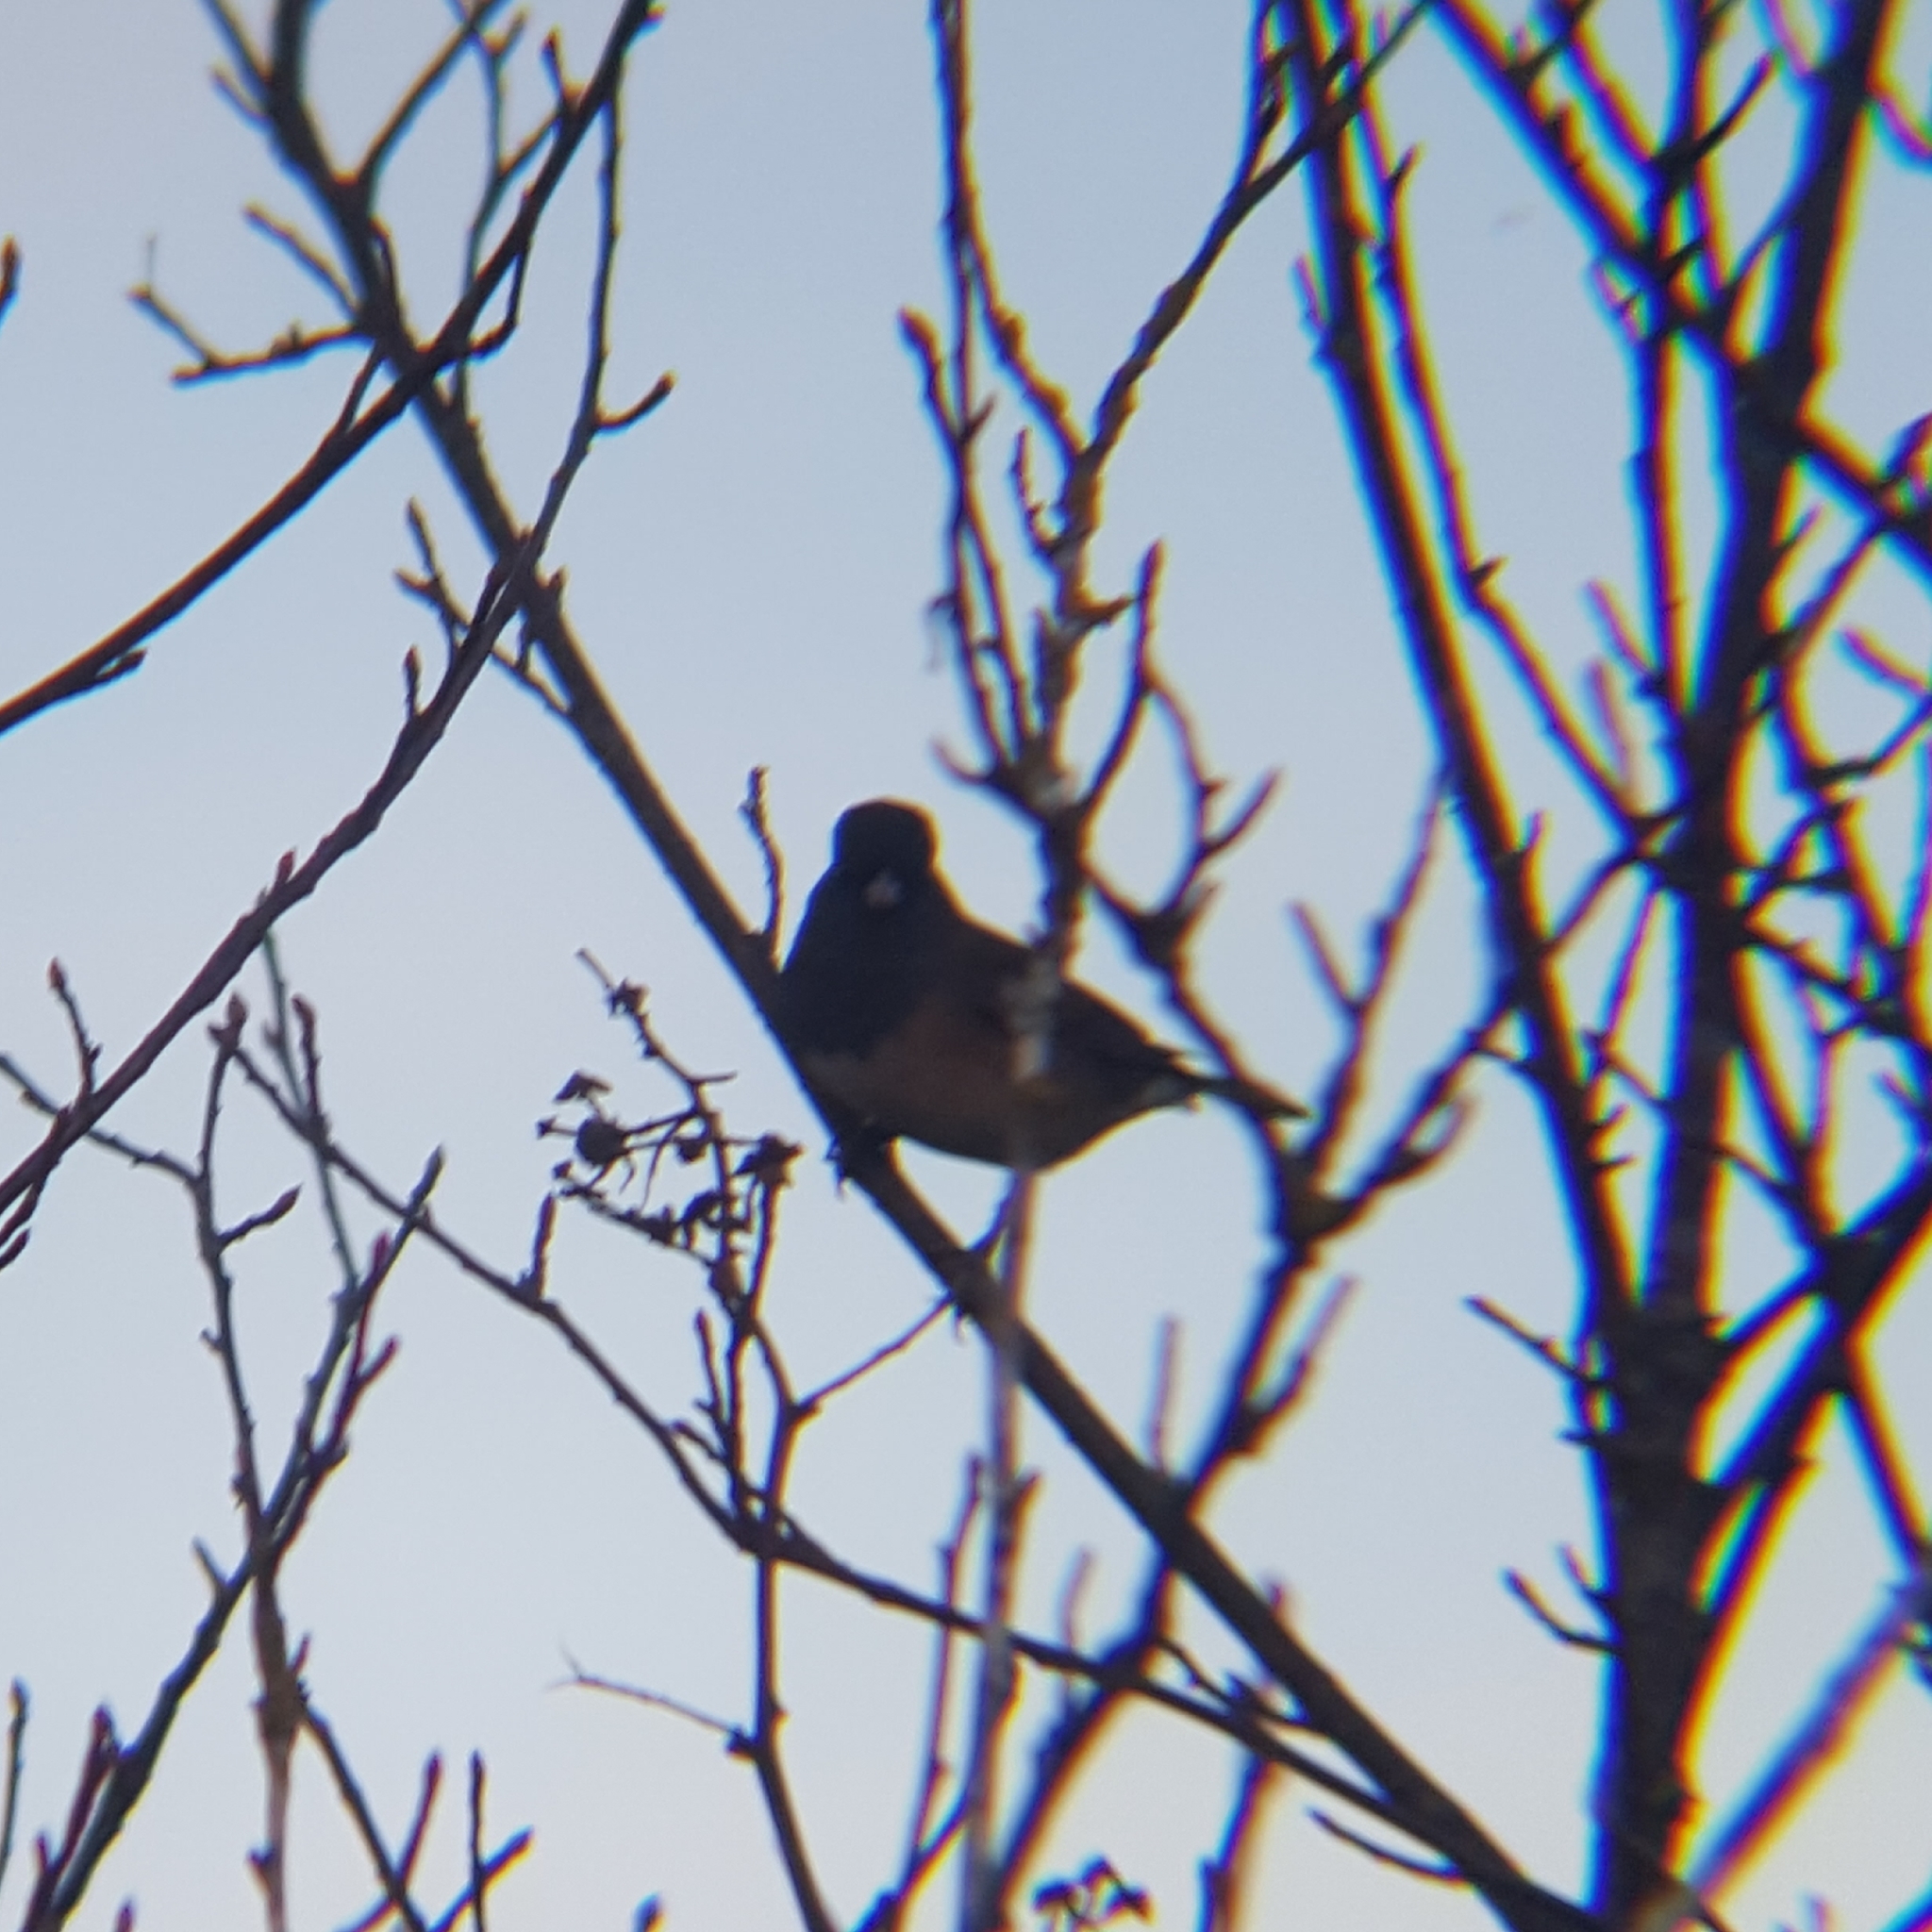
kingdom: Animalia
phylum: Chordata
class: Aves
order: Passeriformes
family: Passerellidae
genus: Junco
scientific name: Junco hyemalis
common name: Dark-eyed junco
